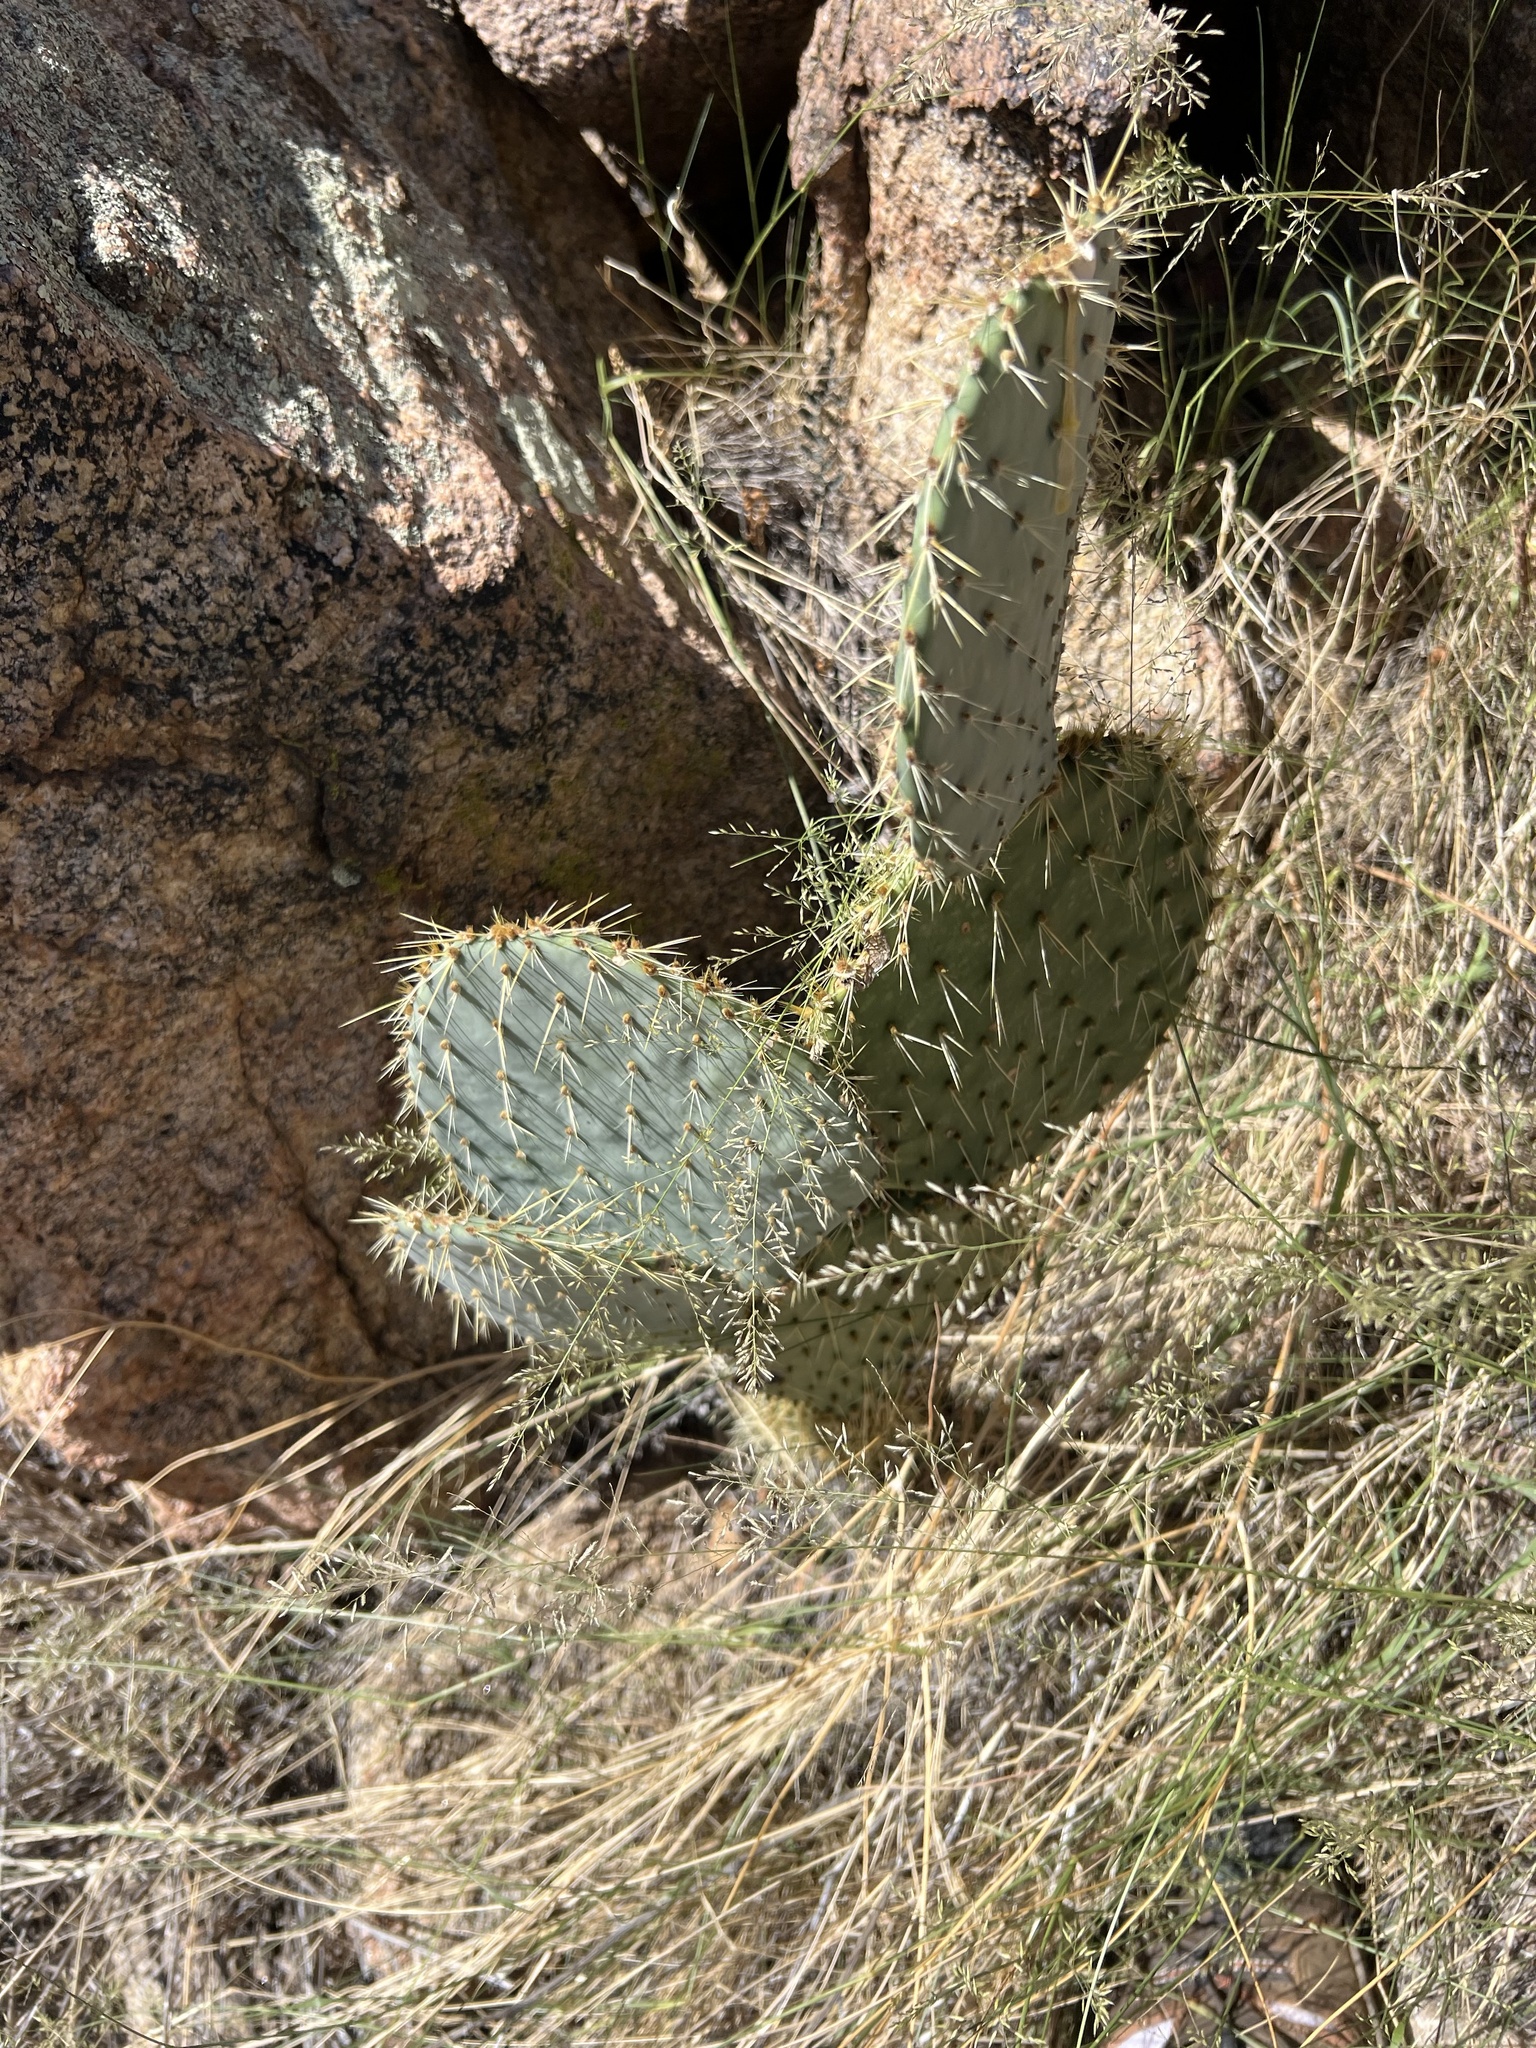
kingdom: Plantae
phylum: Tracheophyta
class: Magnoliopsida
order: Caryophyllales
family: Cactaceae
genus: Opuntia
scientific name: Opuntia chlorotica
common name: Dollar-joint prickly-pear
